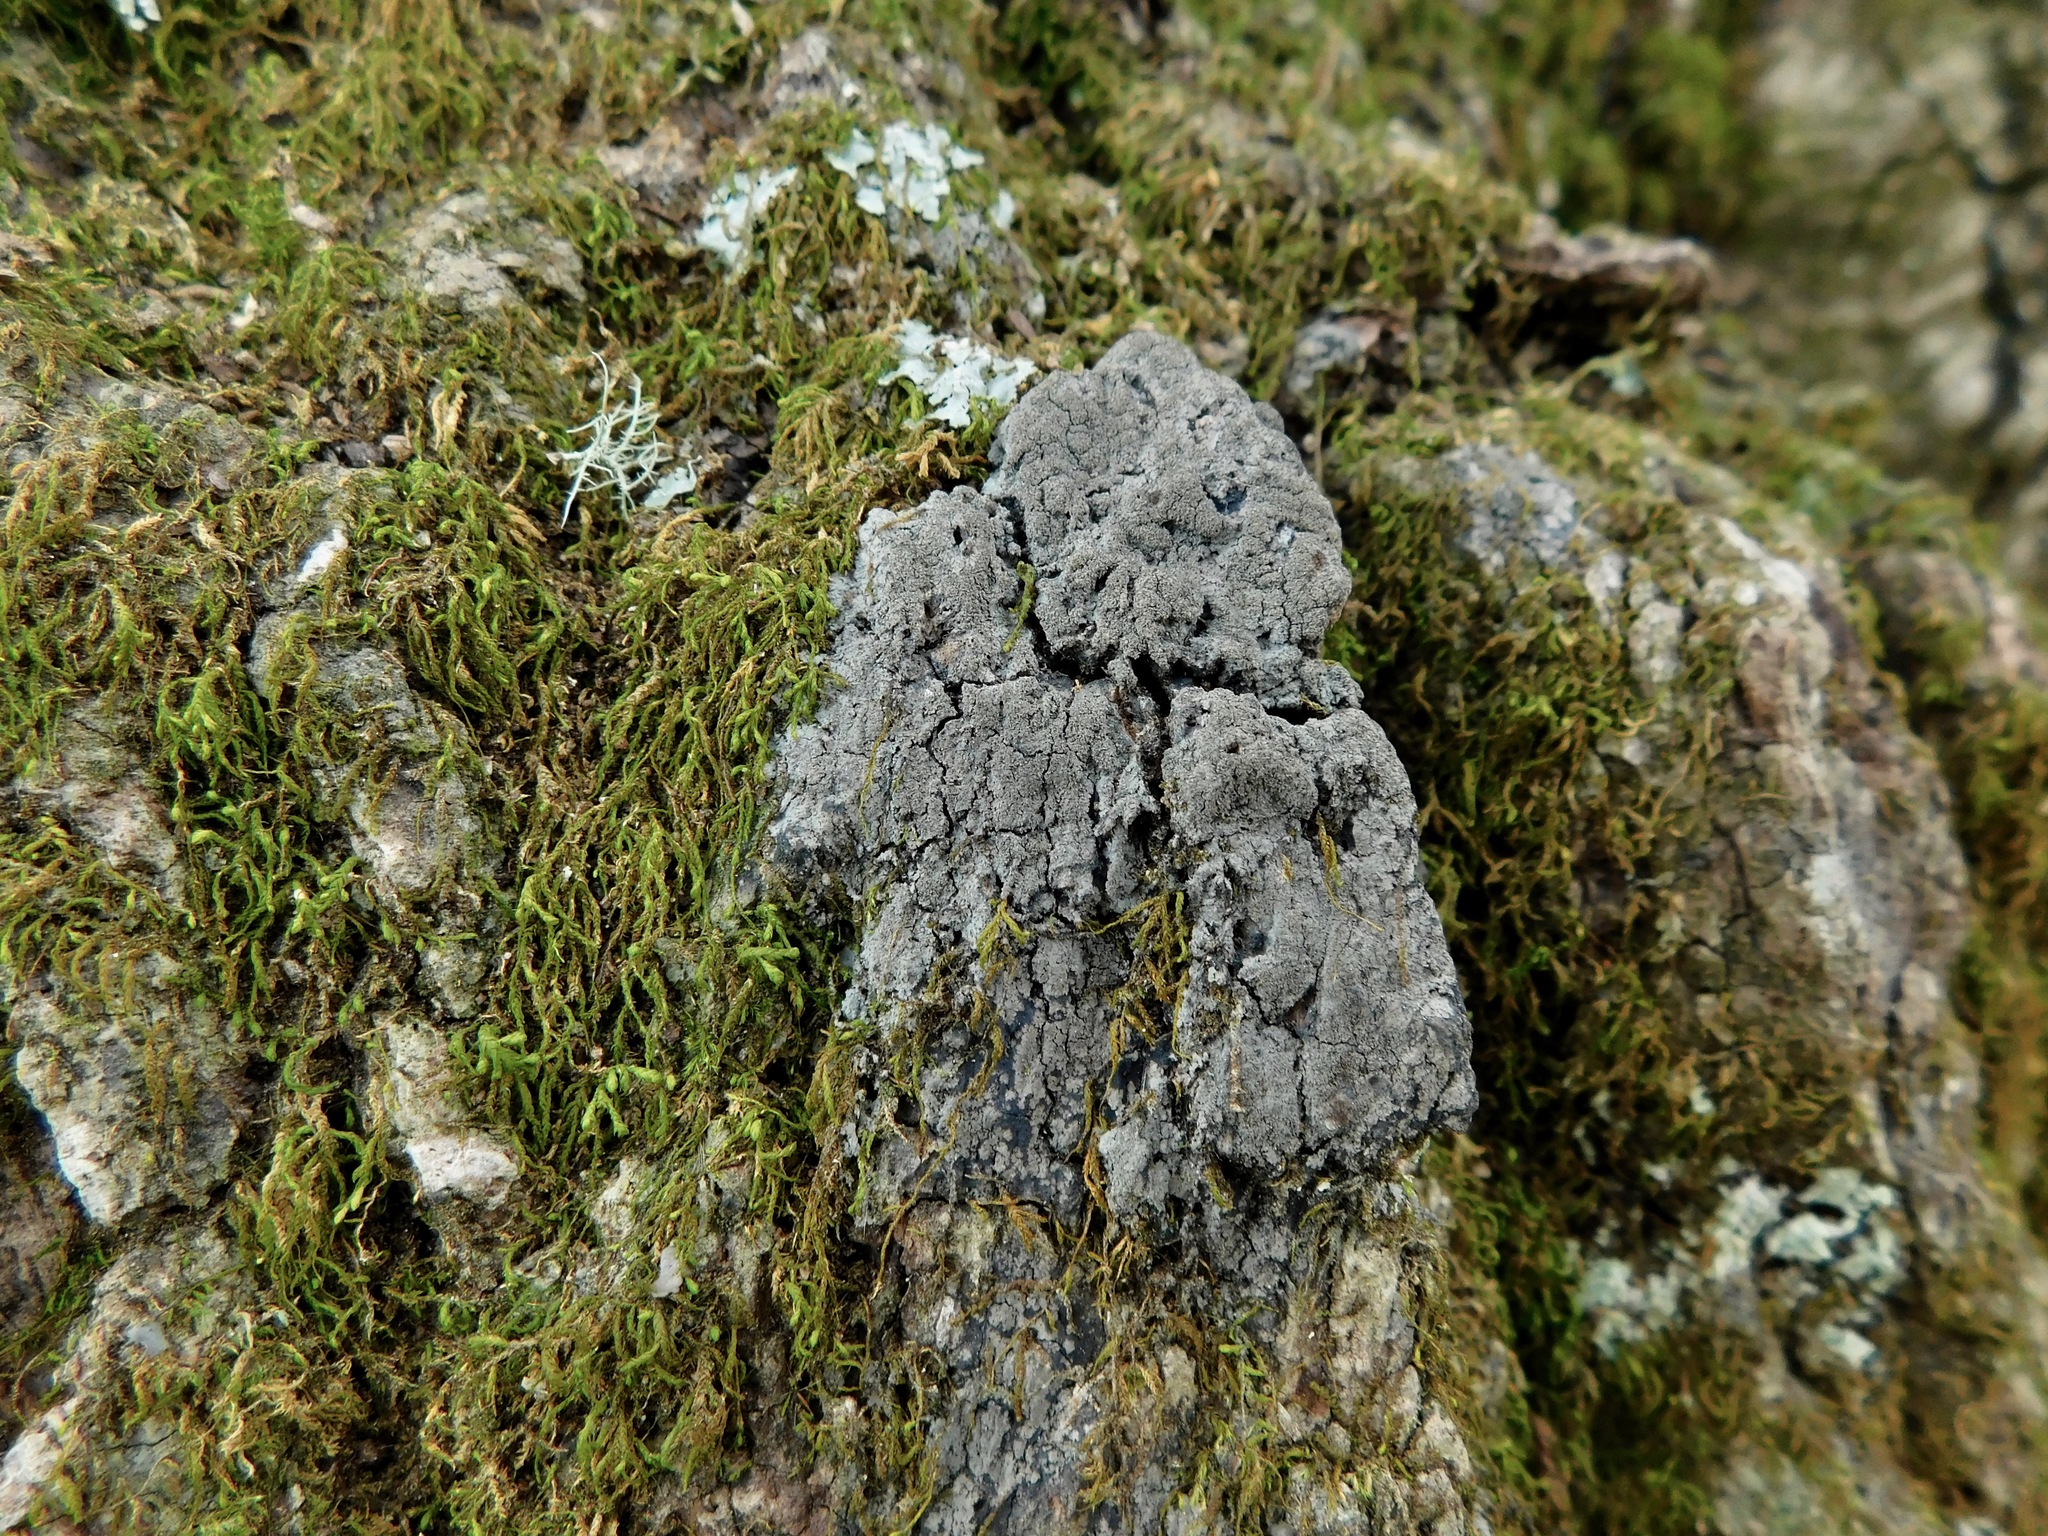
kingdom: Fungi
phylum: Ascomycota
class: Lecanoromycetes
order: Peltigerales
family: Pannariaceae
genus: Parmeliella
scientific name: Parmeliella appalachensis
